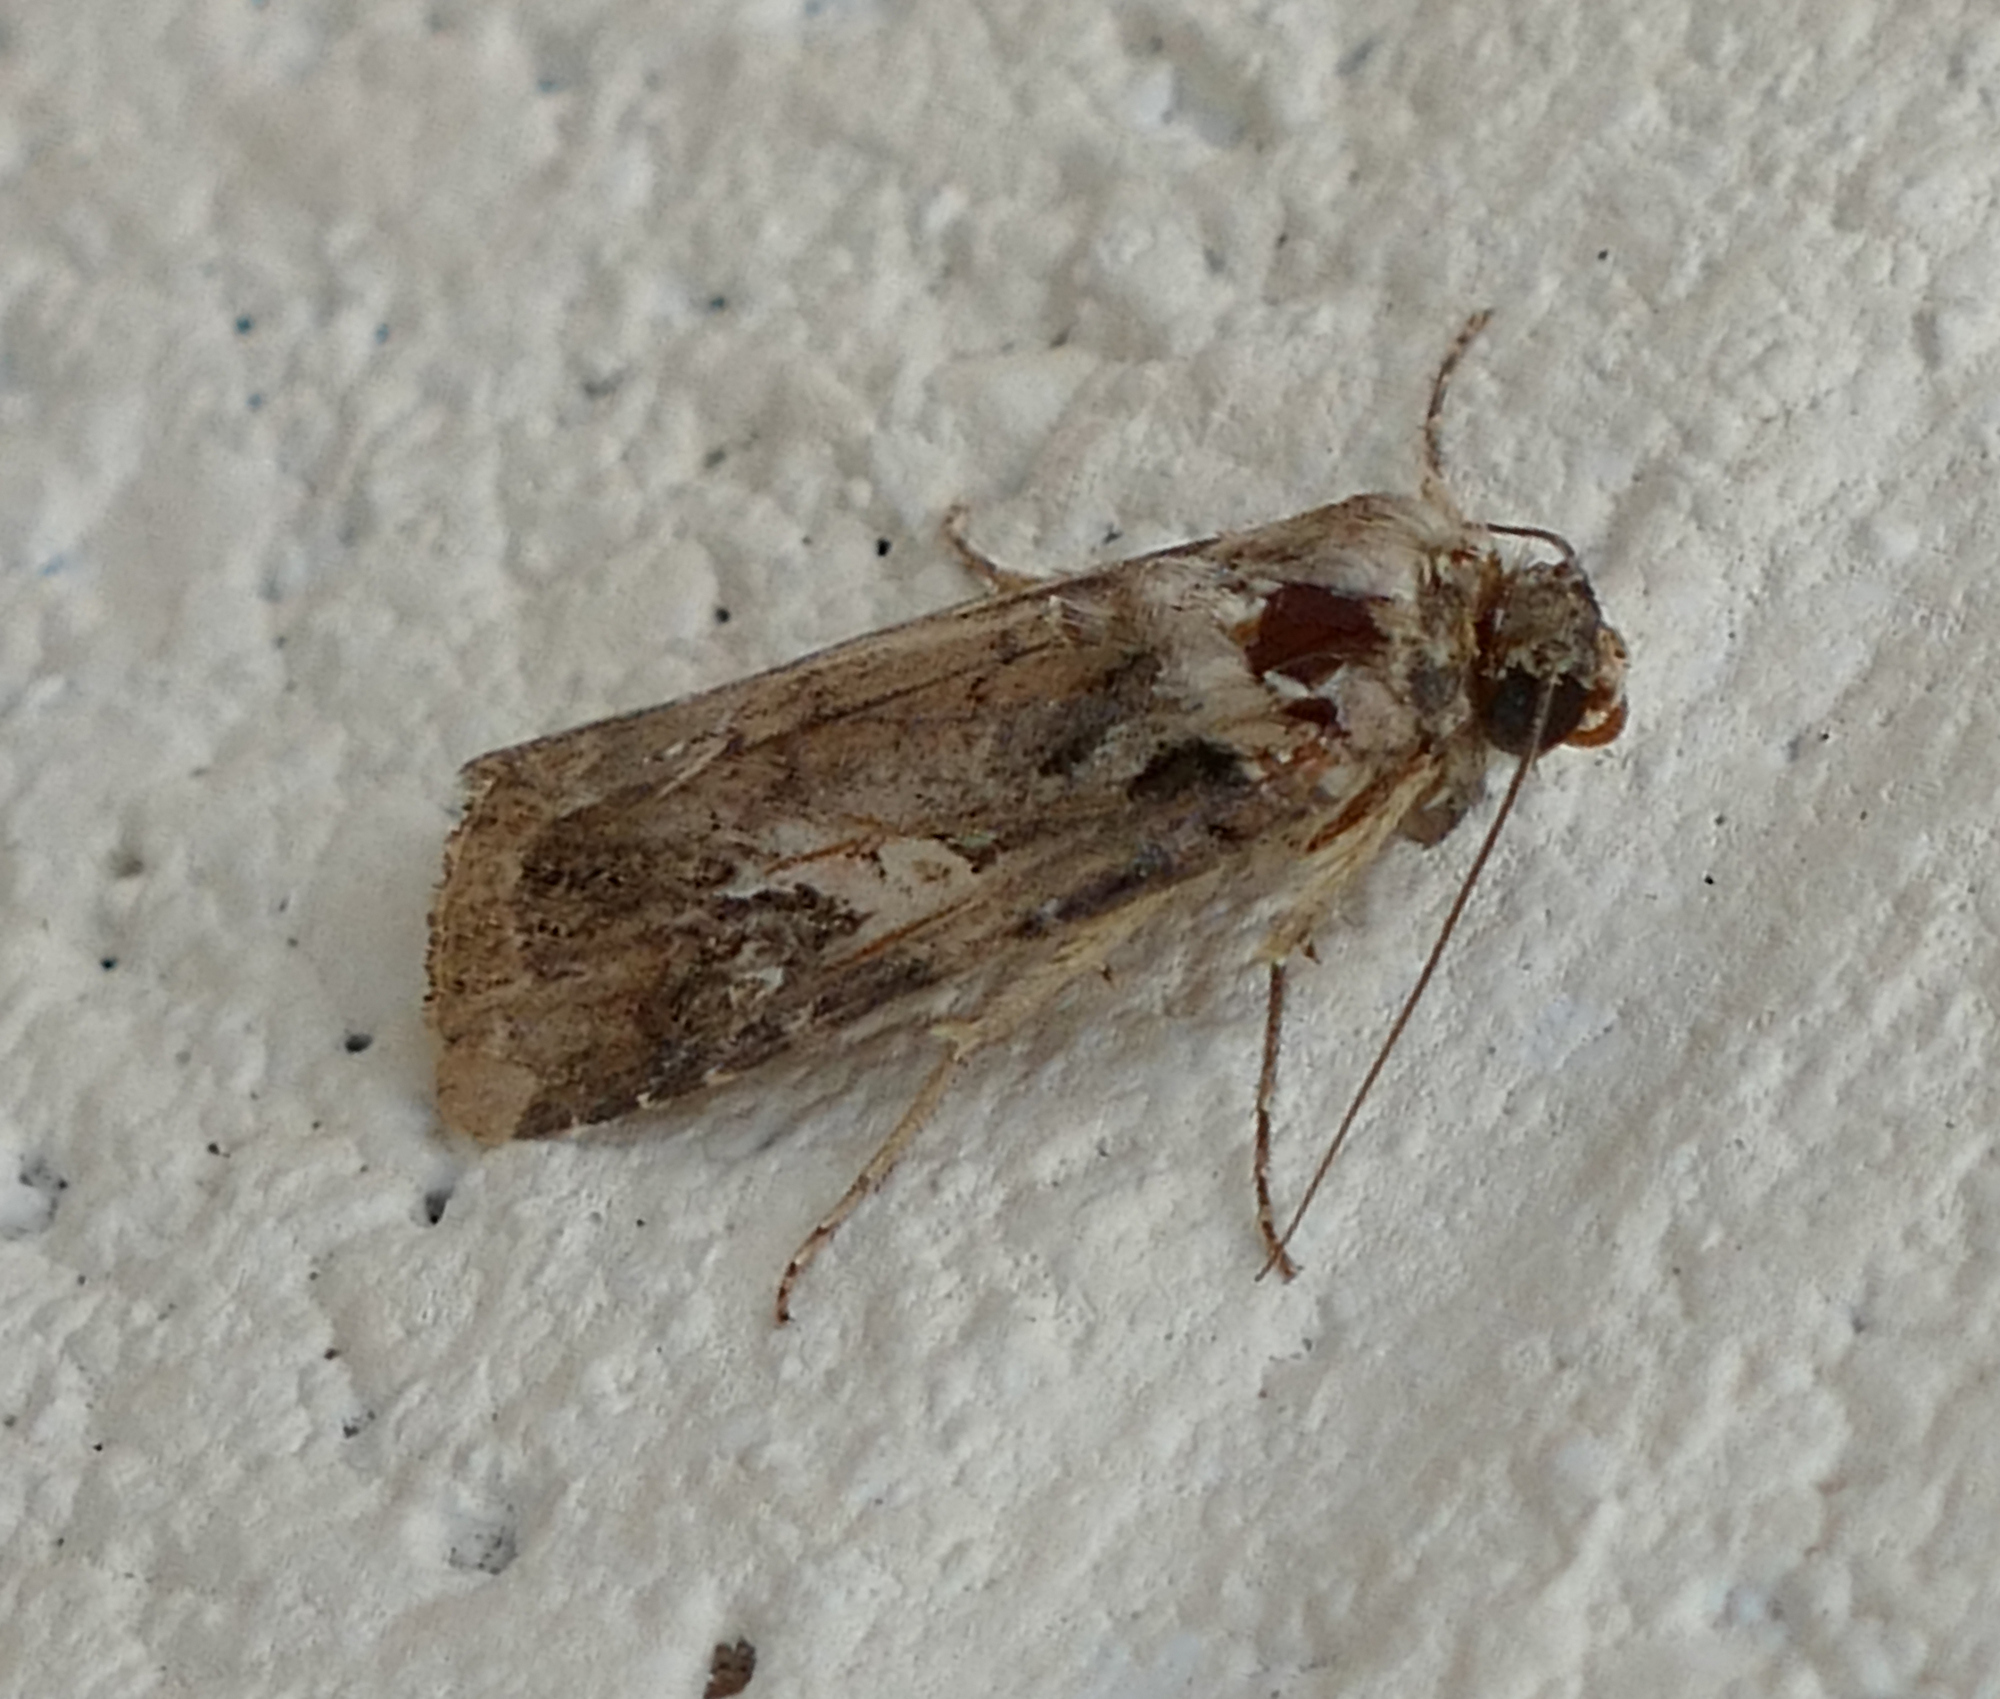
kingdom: Animalia
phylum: Arthropoda
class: Insecta
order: Lepidoptera
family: Noctuidae
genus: Spodoptera
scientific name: Spodoptera frugiperda
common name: Fall armyworm
